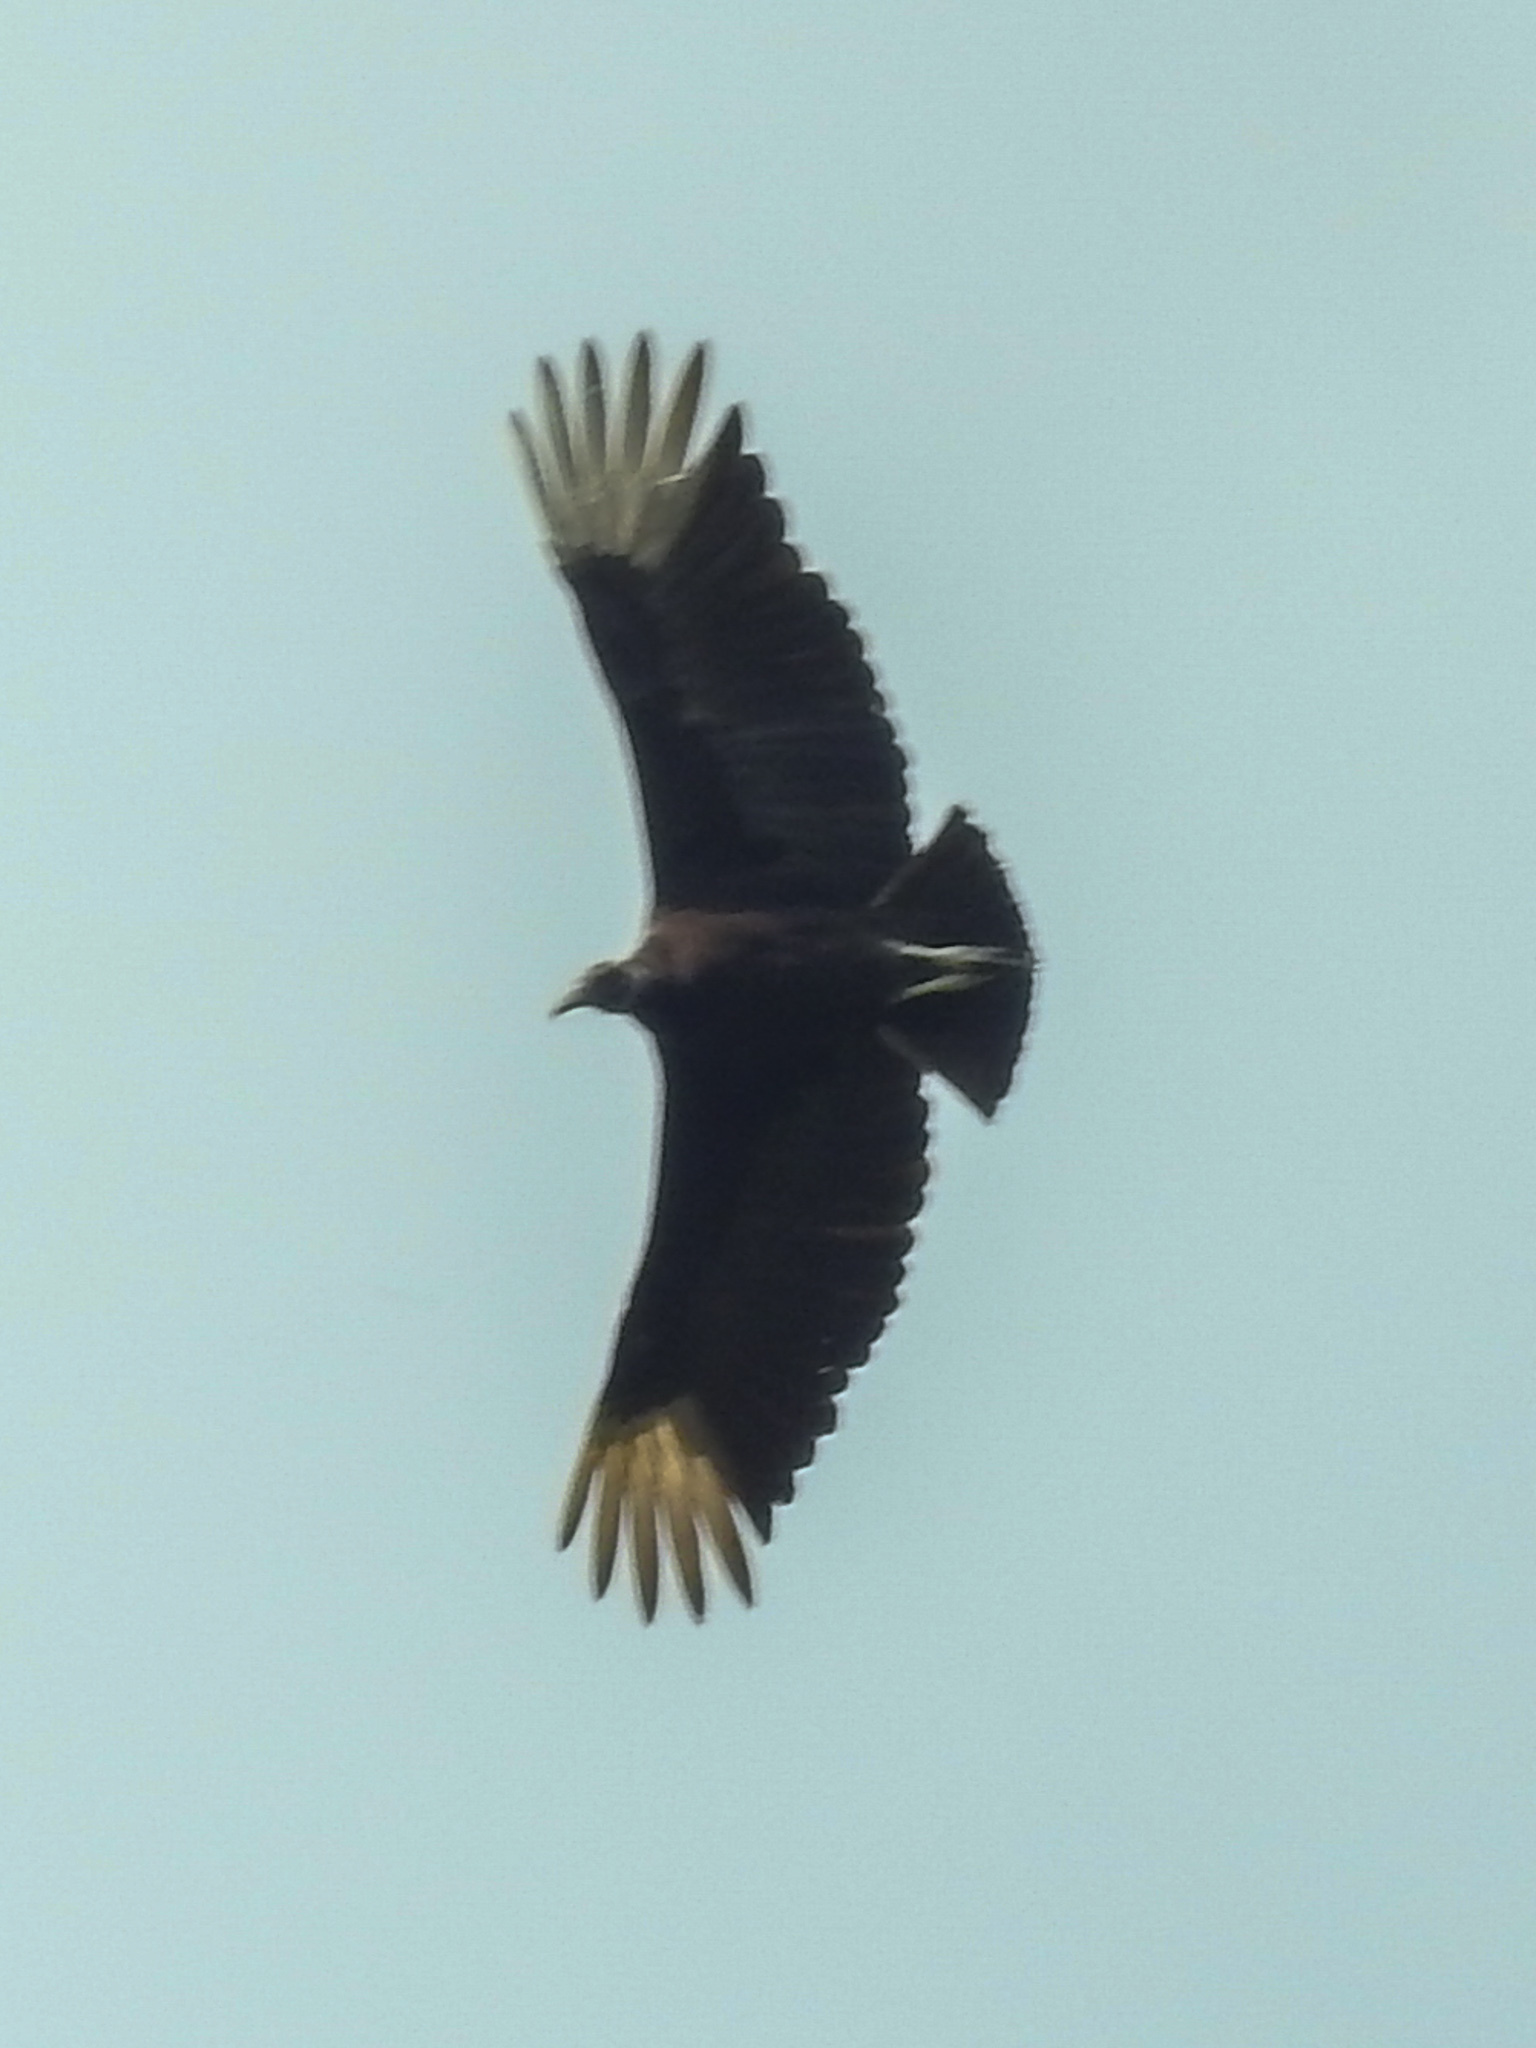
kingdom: Animalia
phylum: Chordata
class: Aves
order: Accipitriformes
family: Cathartidae
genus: Coragyps
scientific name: Coragyps atratus
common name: Black vulture
